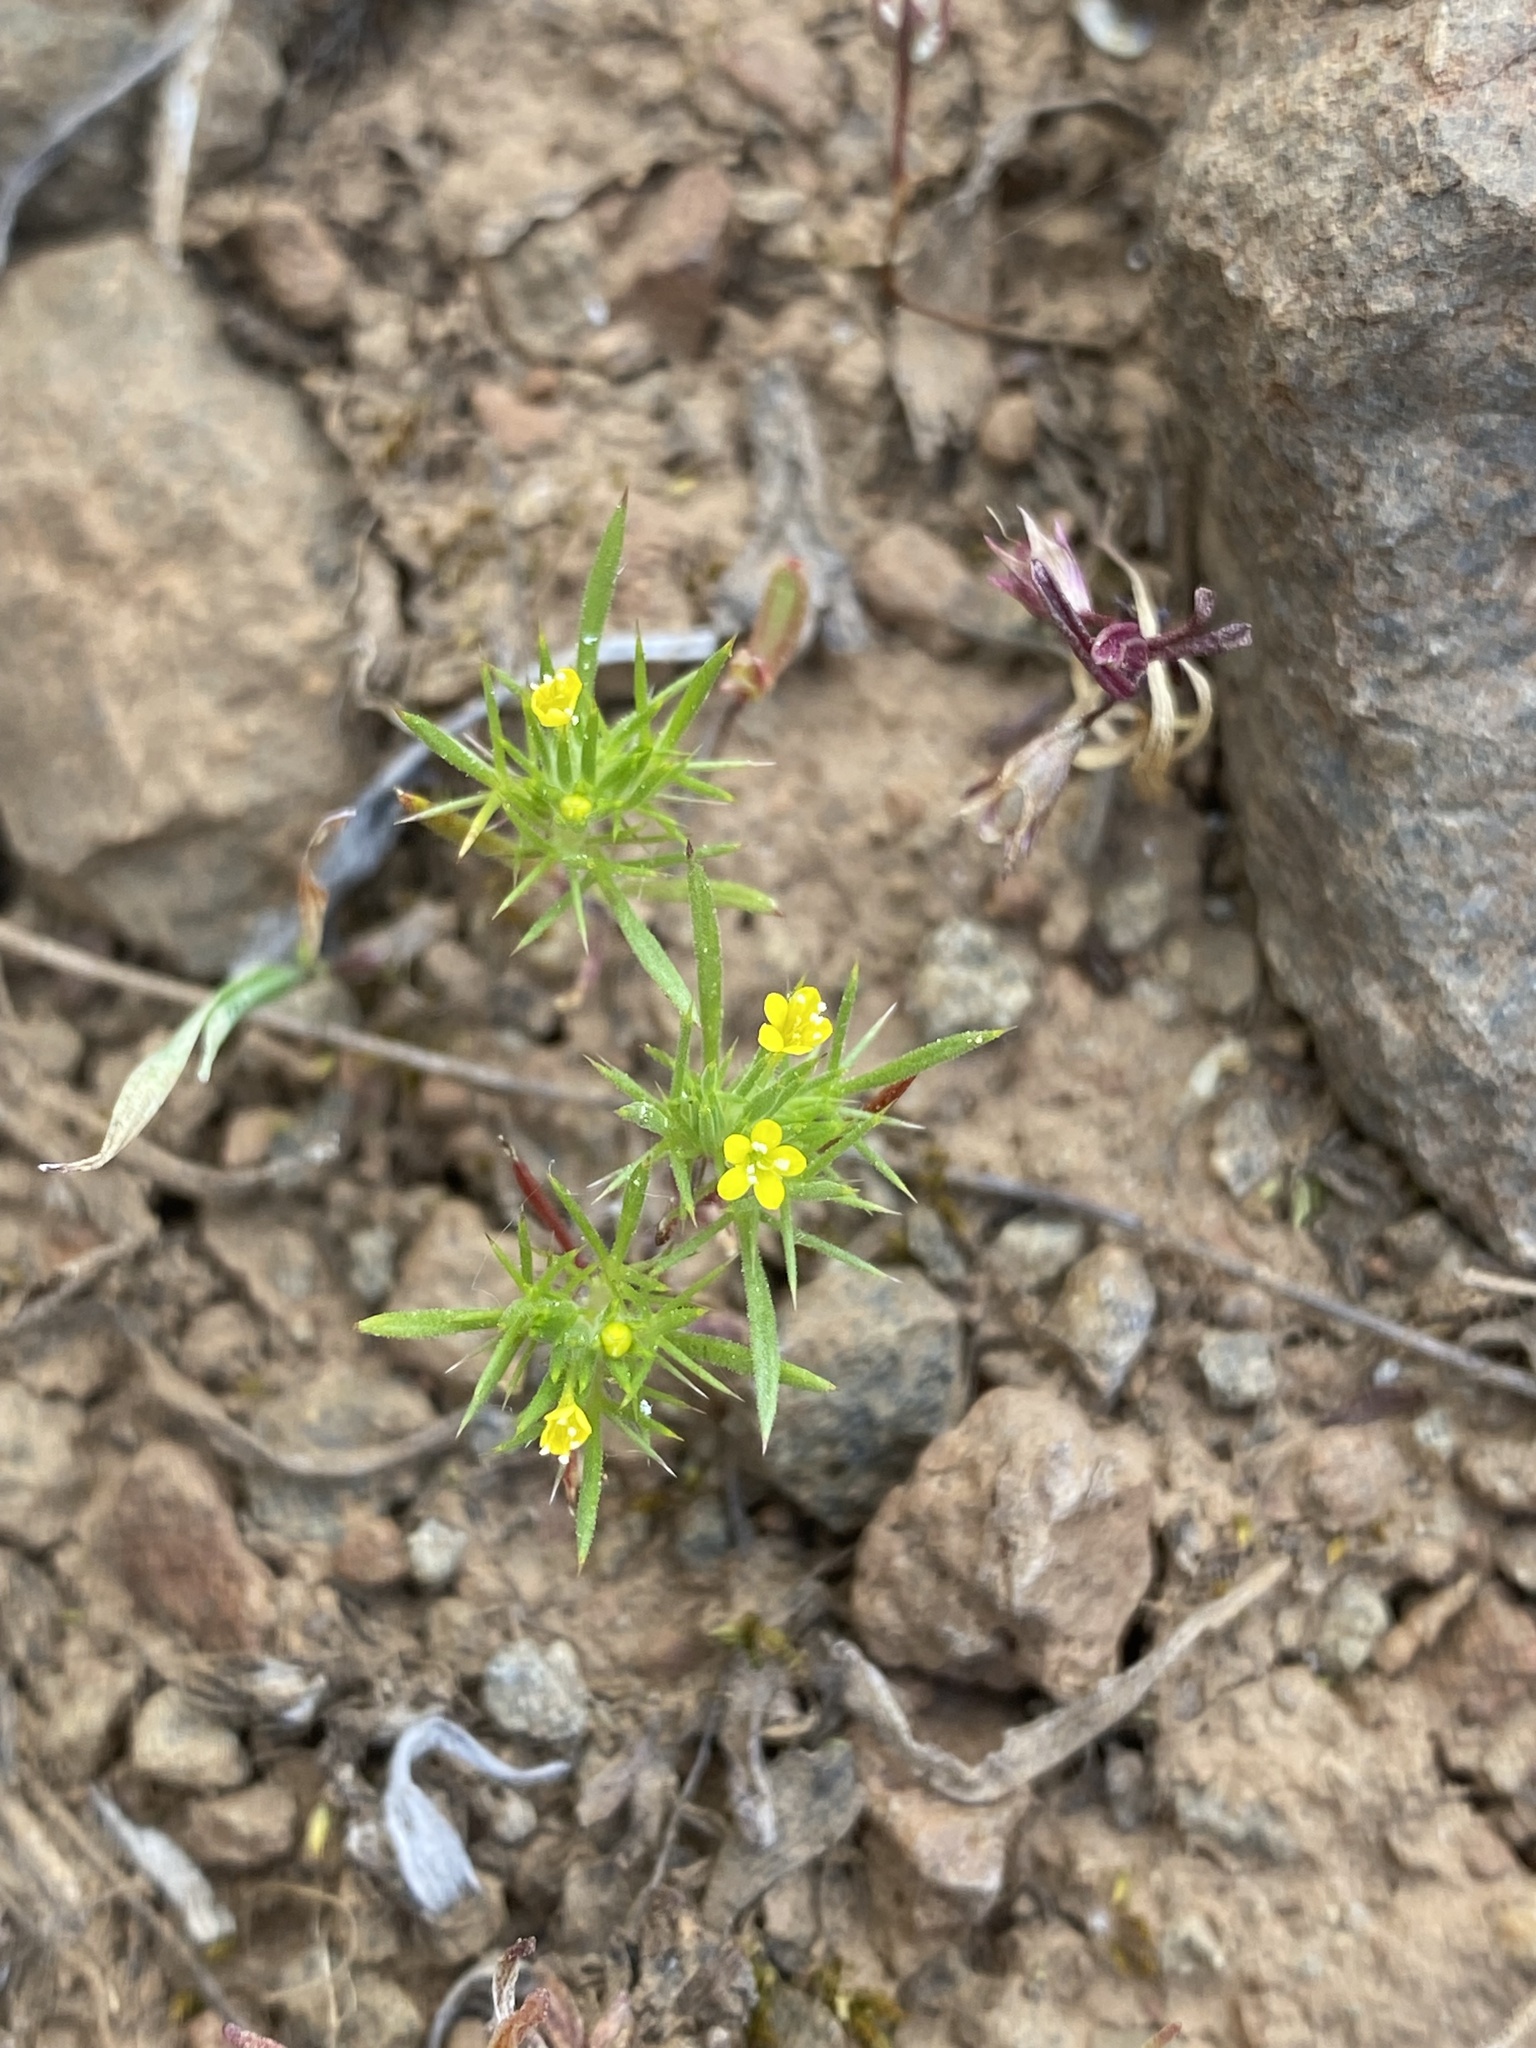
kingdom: Plantae
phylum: Tracheophyta
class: Magnoliopsida
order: Ericales
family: Polemoniaceae
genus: Navarretia
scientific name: Navarretia breweri
